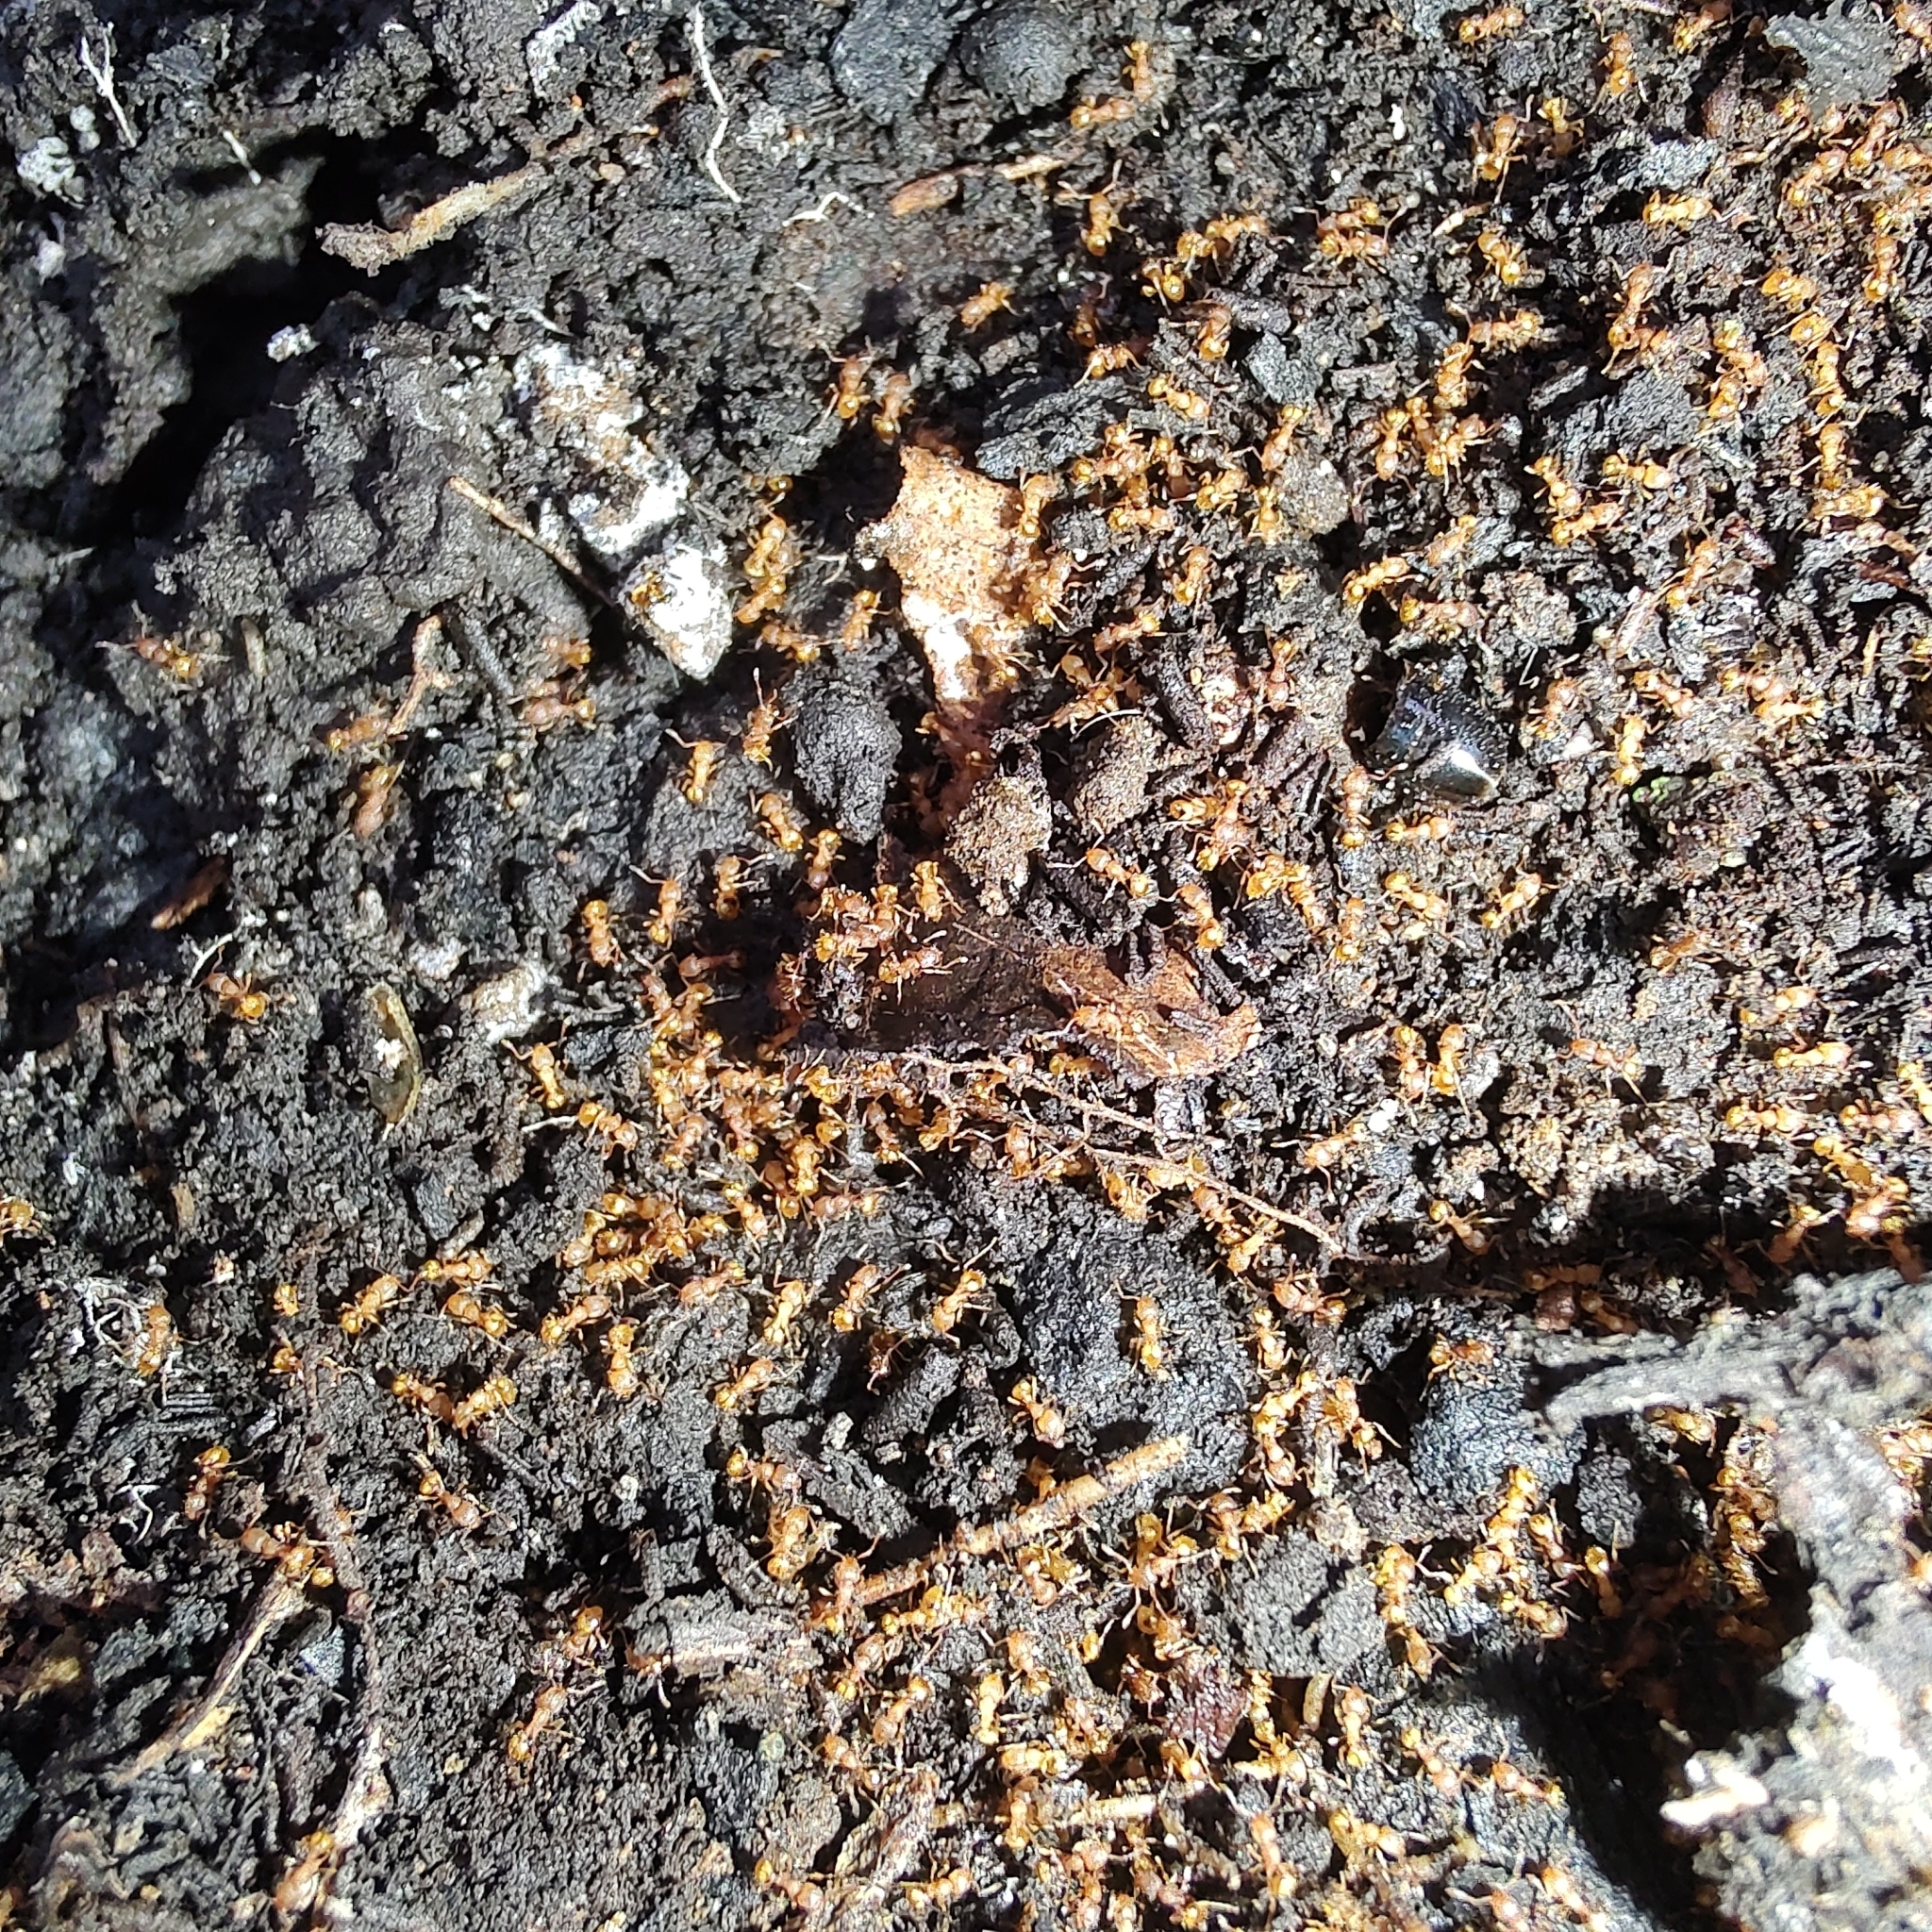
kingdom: Animalia
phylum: Arthropoda
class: Insecta
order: Hymenoptera
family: Formicidae
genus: Wasmannia
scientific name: Wasmannia
